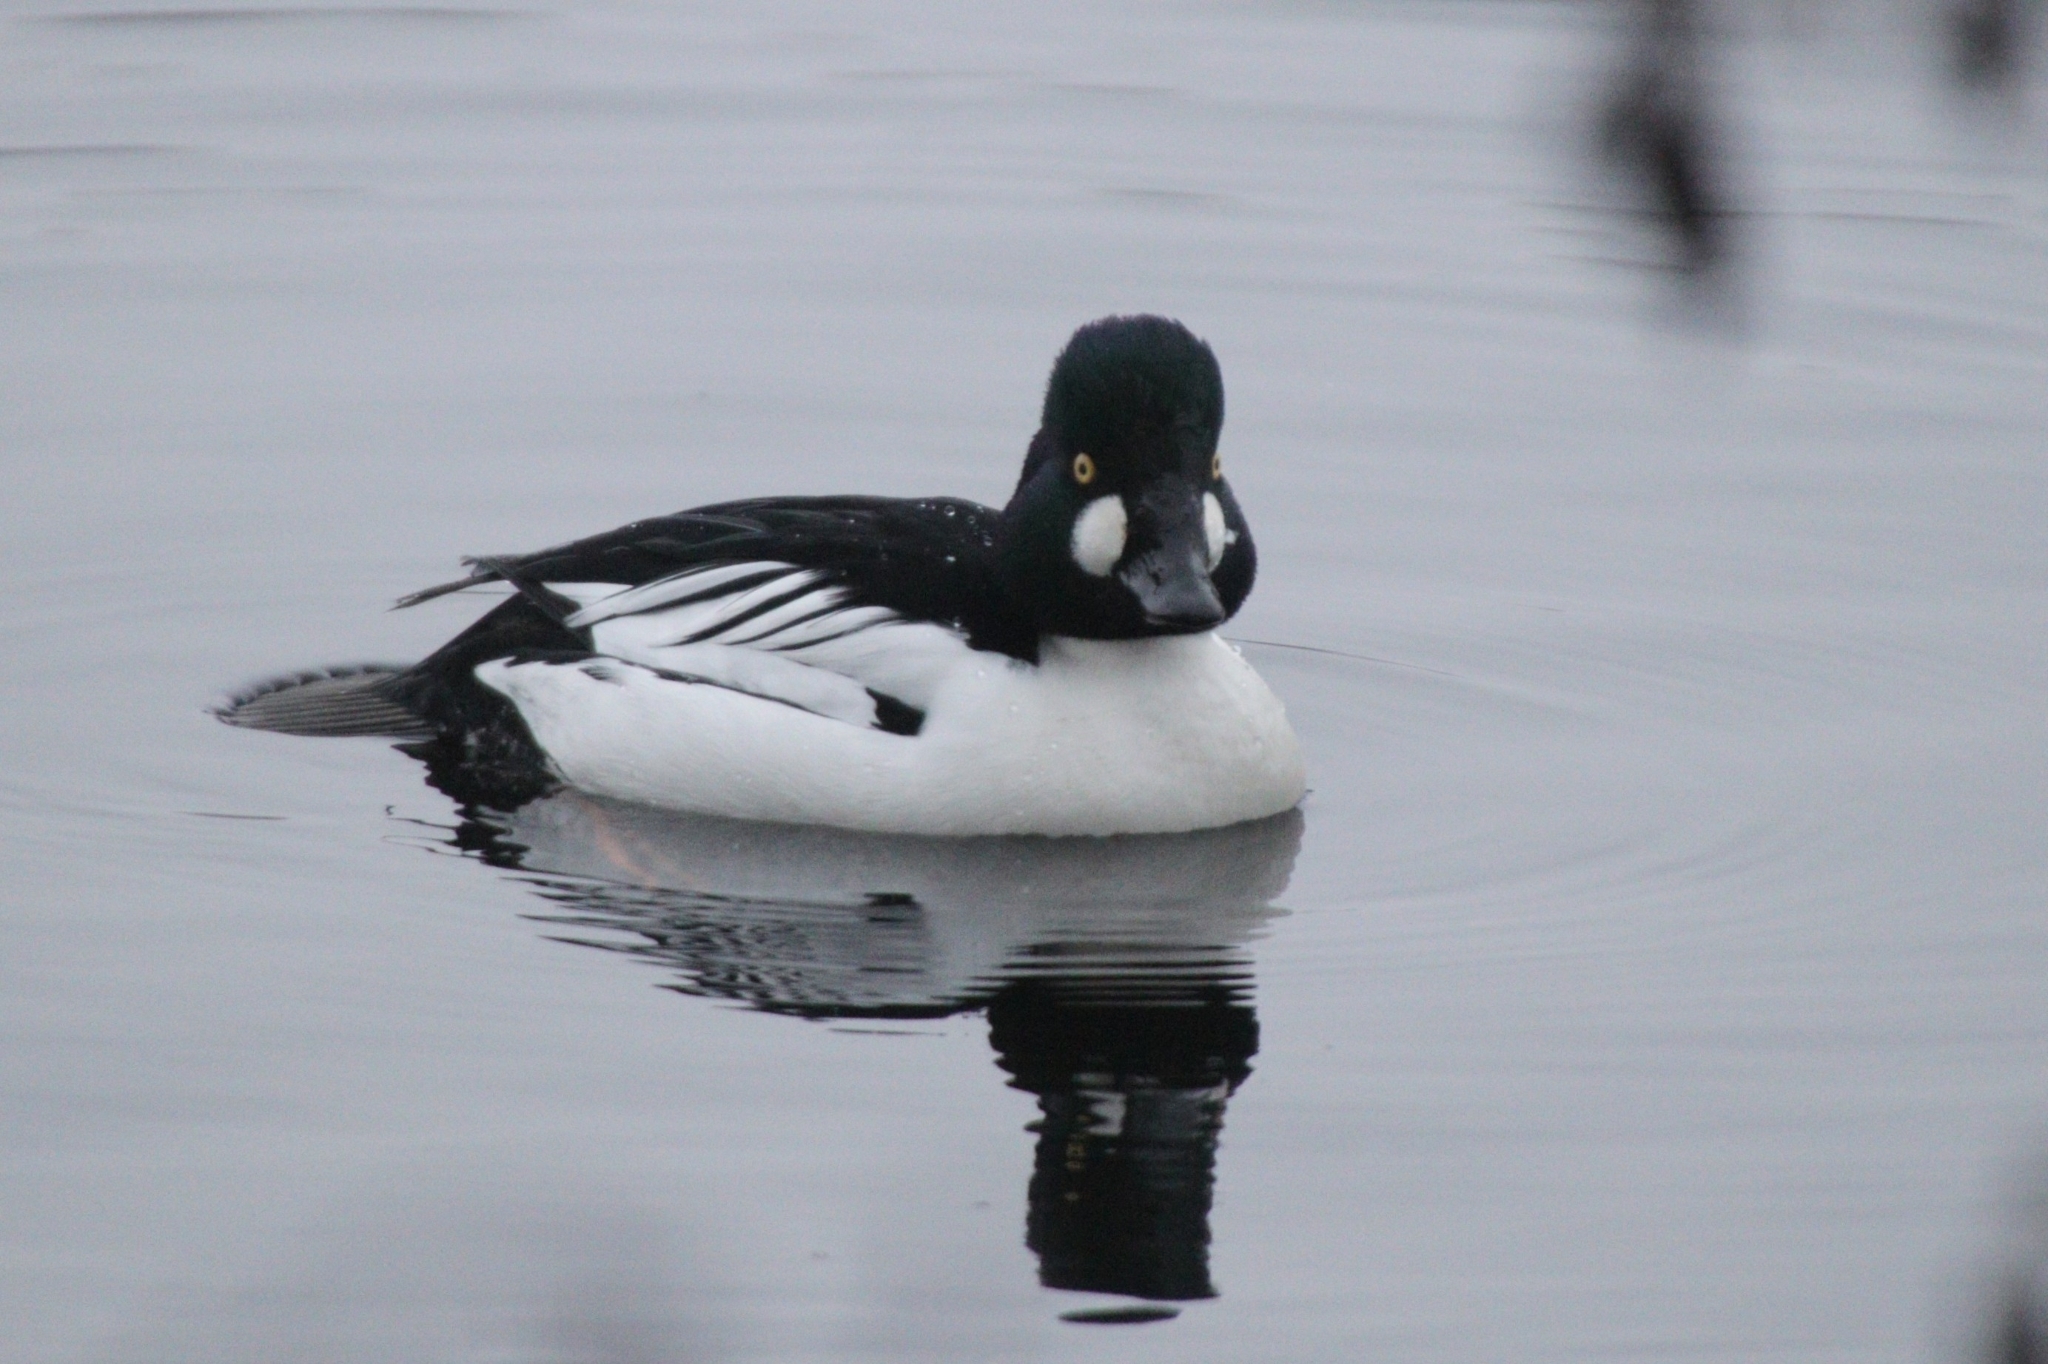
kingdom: Animalia
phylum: Chordata
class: Aves
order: Anseriformes
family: Anatidae
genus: Bucephala
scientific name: Bucephala clangula
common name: Common goldeneye
